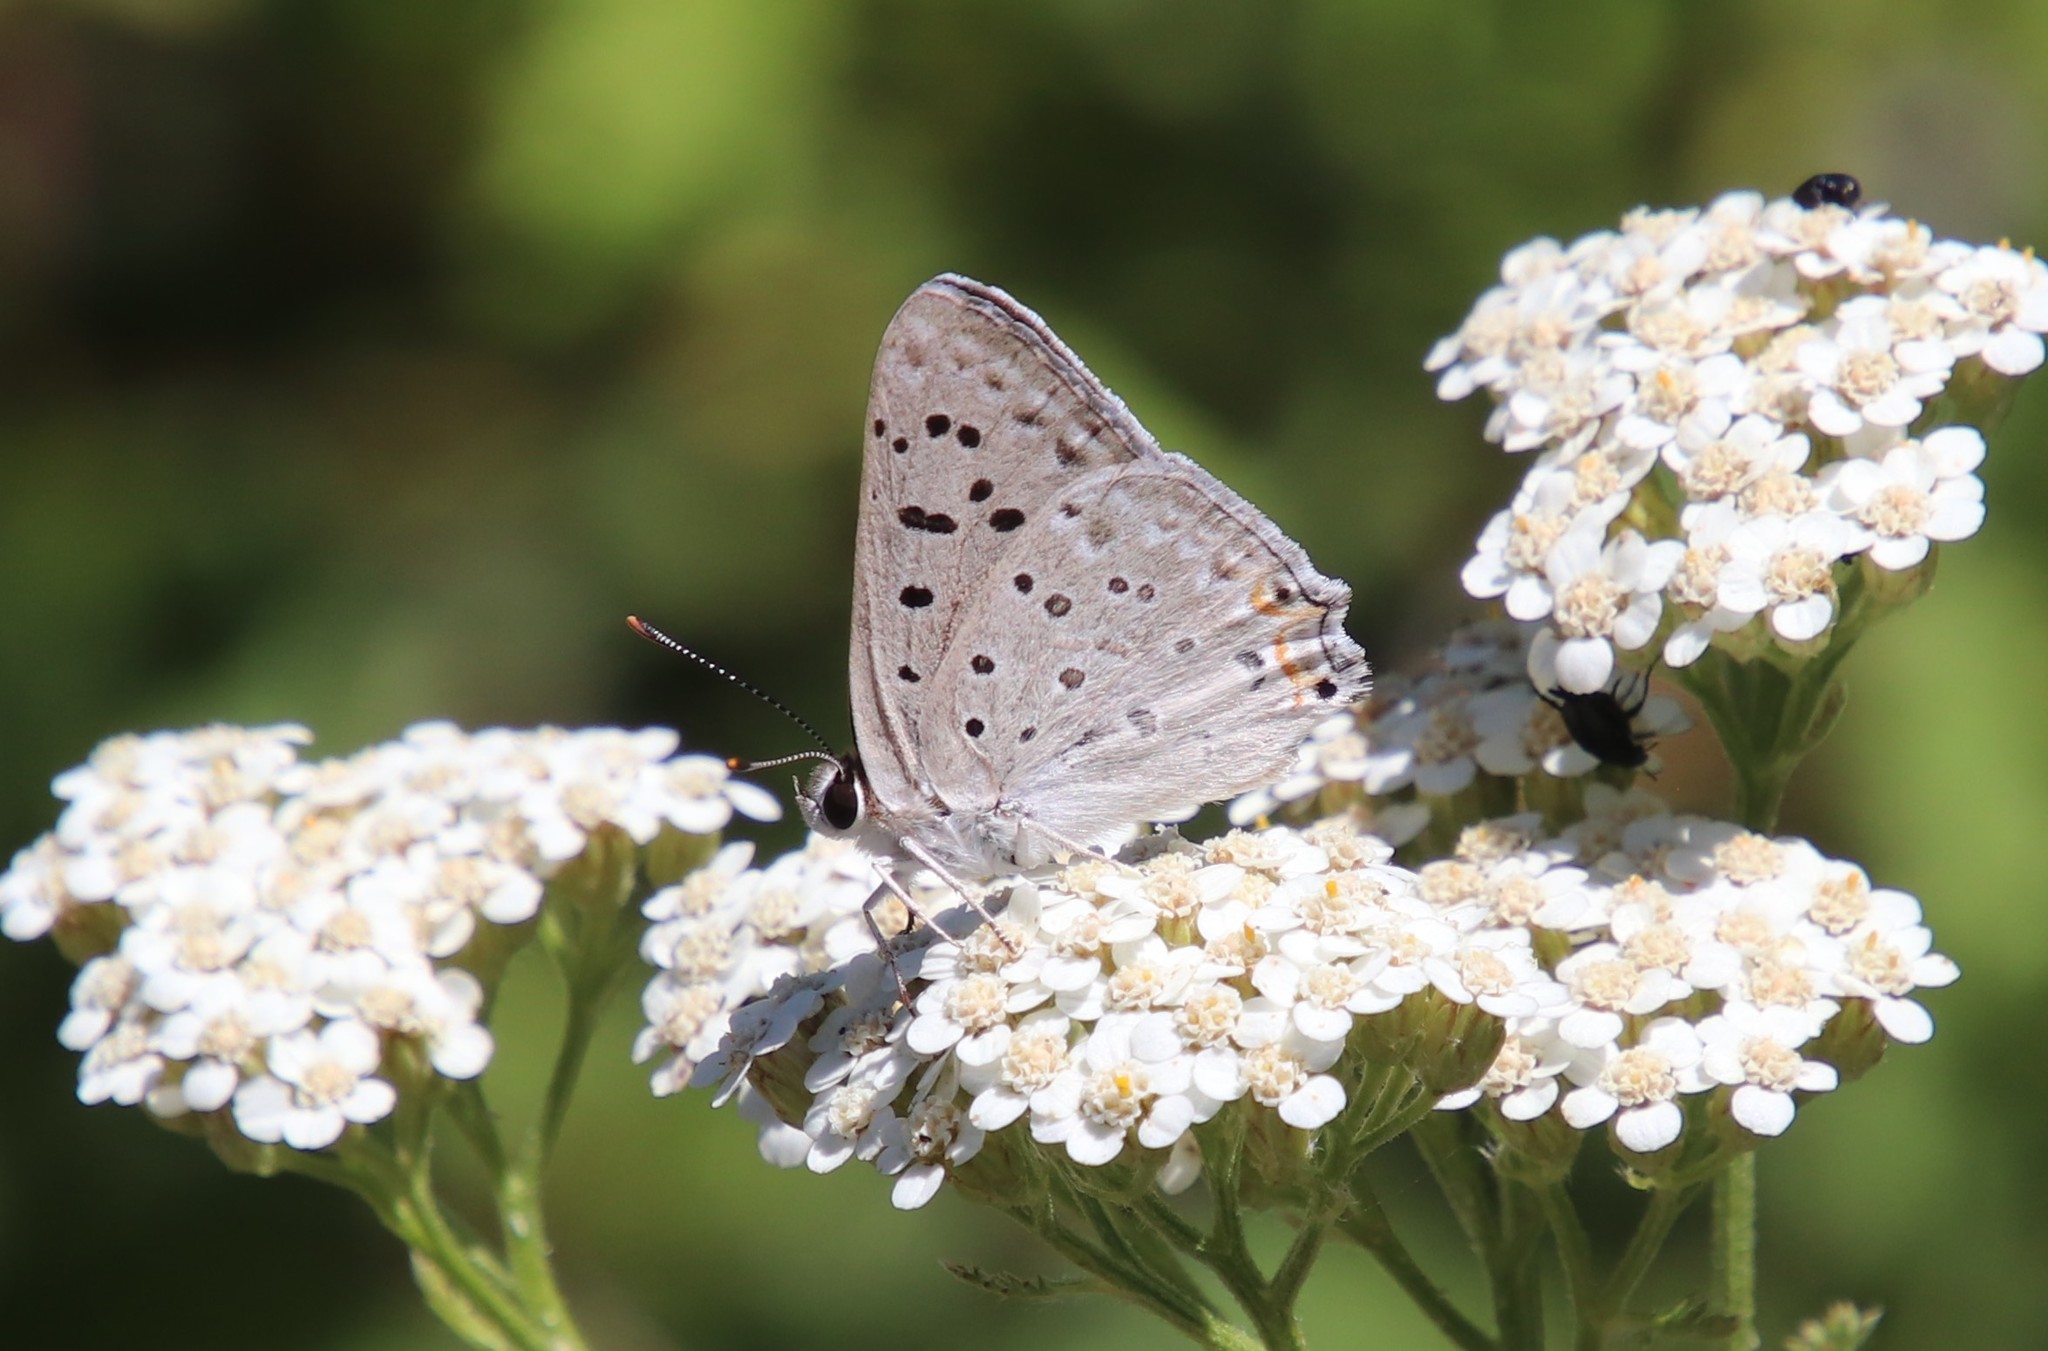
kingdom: Animalia
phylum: Arthropoda
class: Insecta
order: Lepidoptera
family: Lycaenidae
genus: Tharsalea
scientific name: Tharsalea xanthoides
